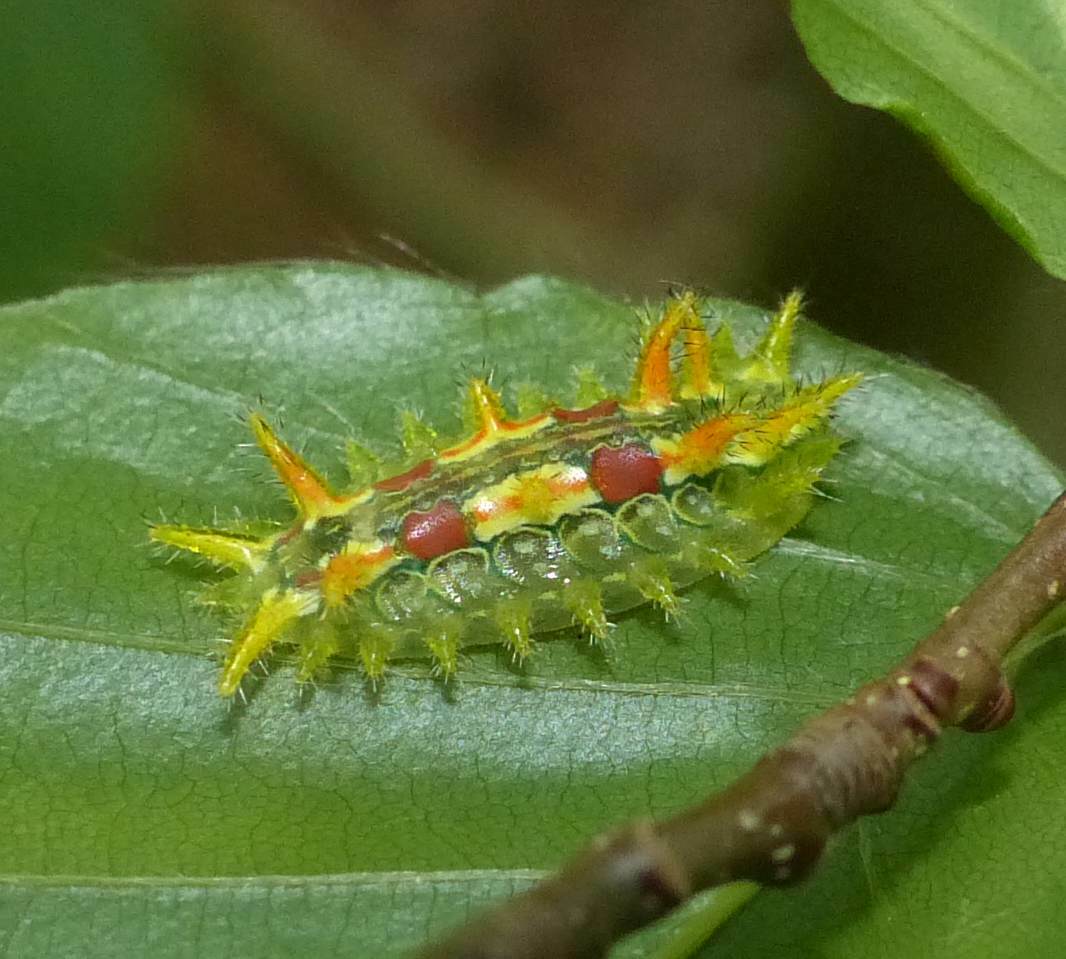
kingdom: Animalia
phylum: Arthropoda
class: Insecta
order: Lepidoptera
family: Limacodidae
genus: Euclea
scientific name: Euclea delphinii
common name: Spiny oak-slug moth
